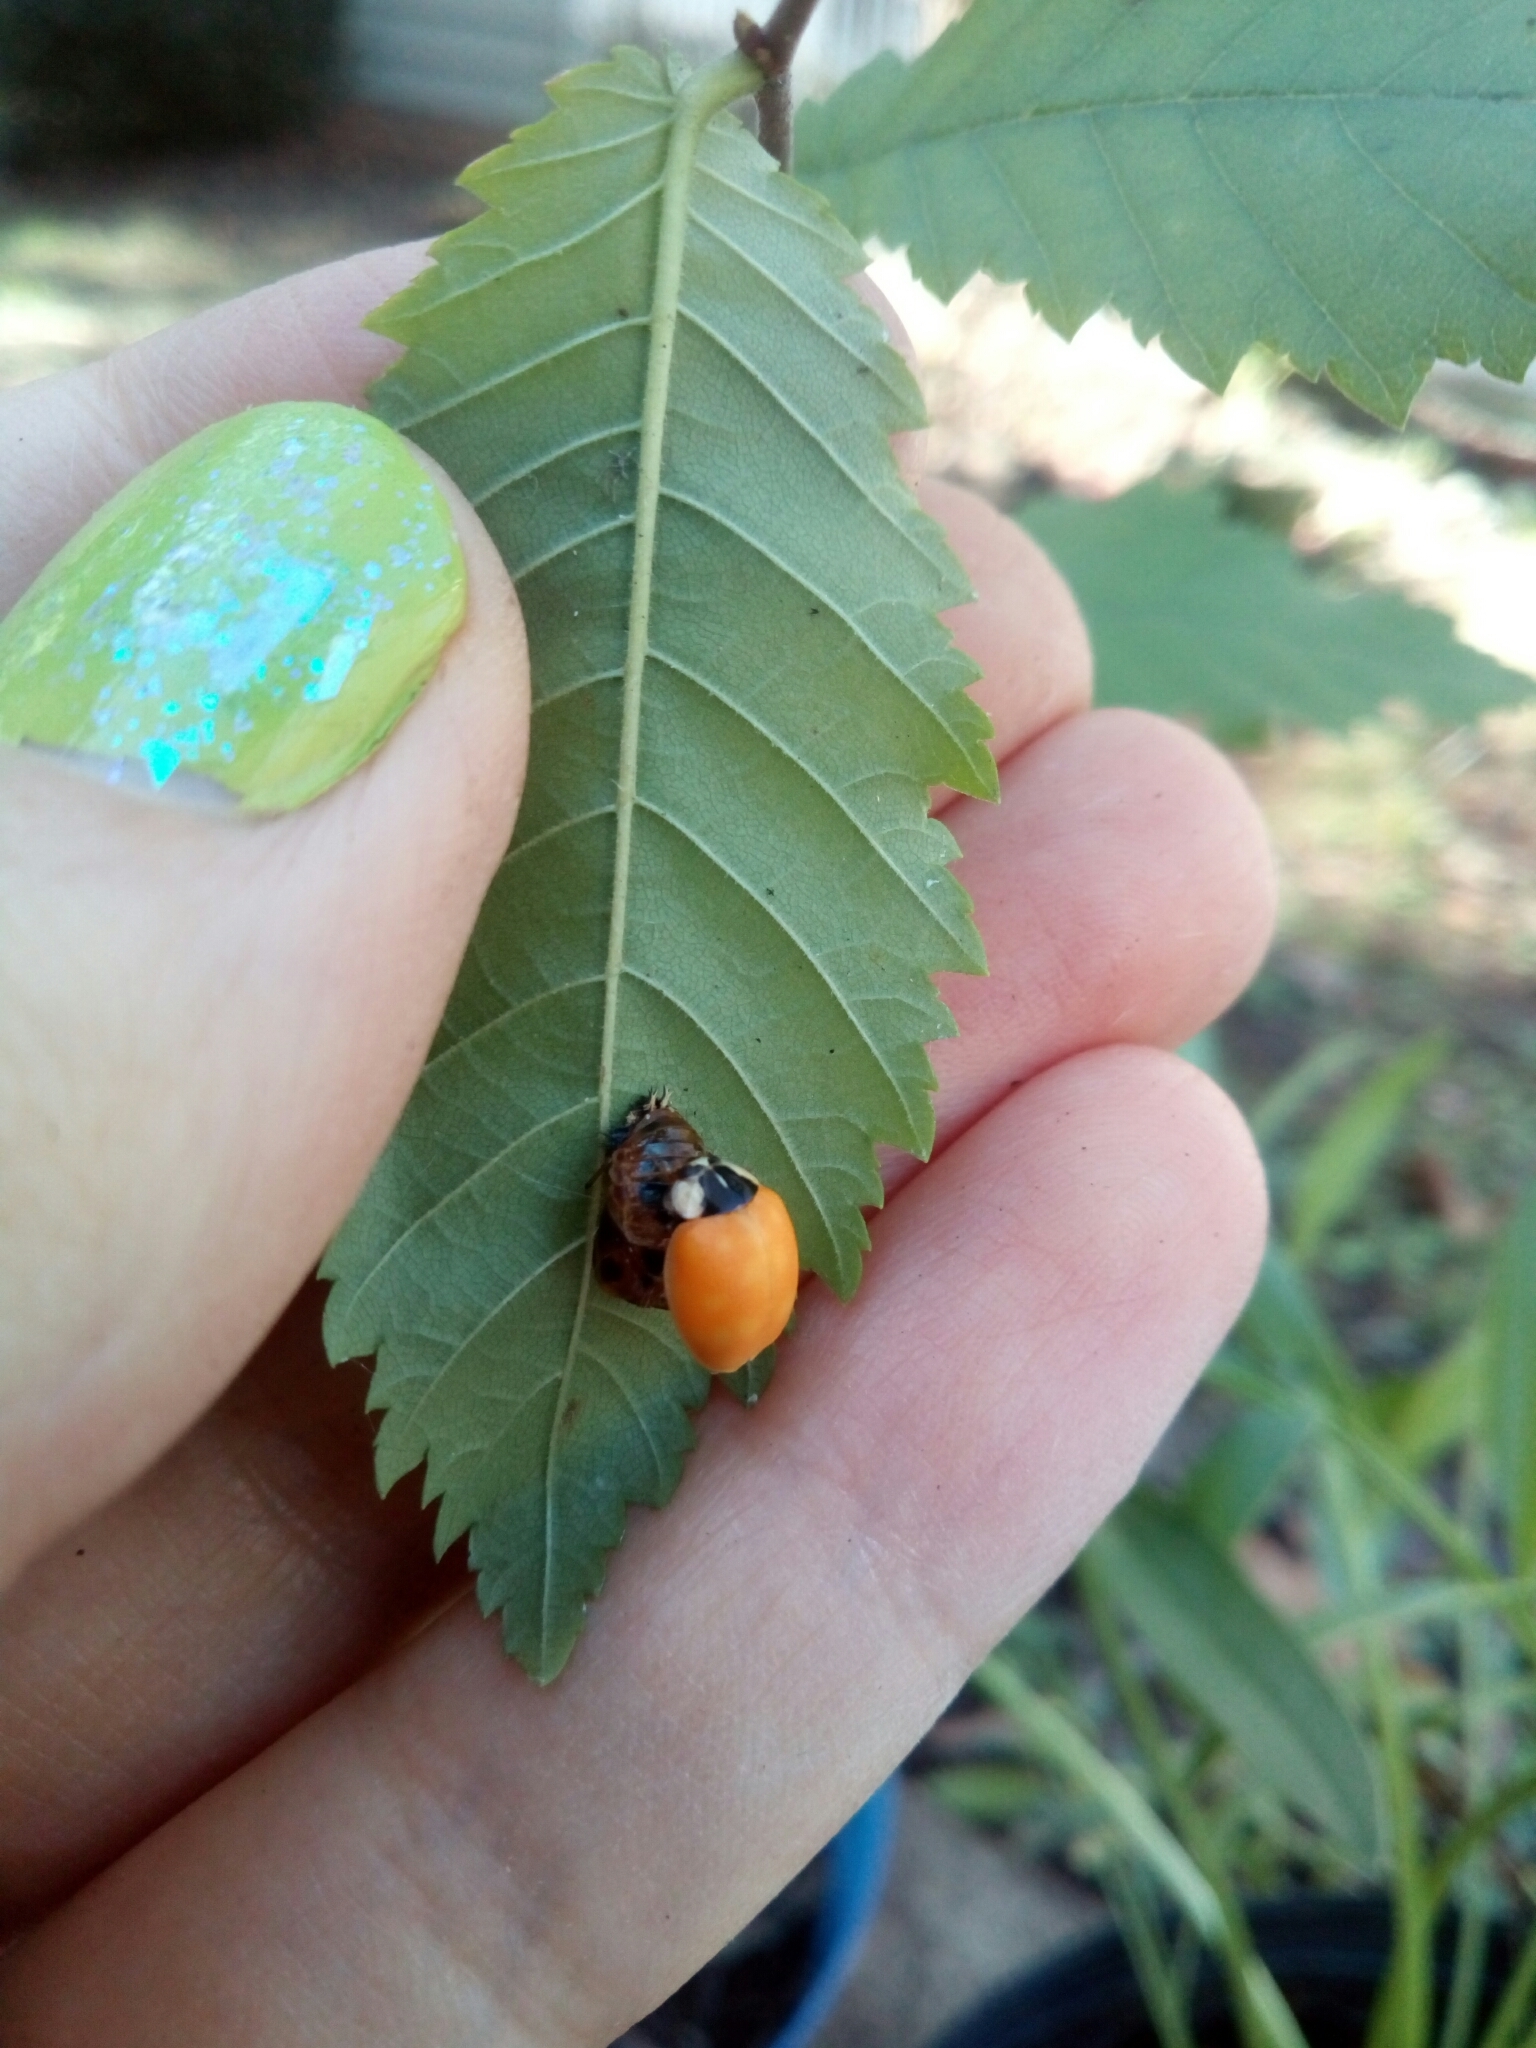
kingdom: Animalia
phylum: Arthropoda
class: Insecta
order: Coleoptera
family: Coccinellidae
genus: Harmonia
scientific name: Harmonia axyridis
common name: Harlequin ladybird
